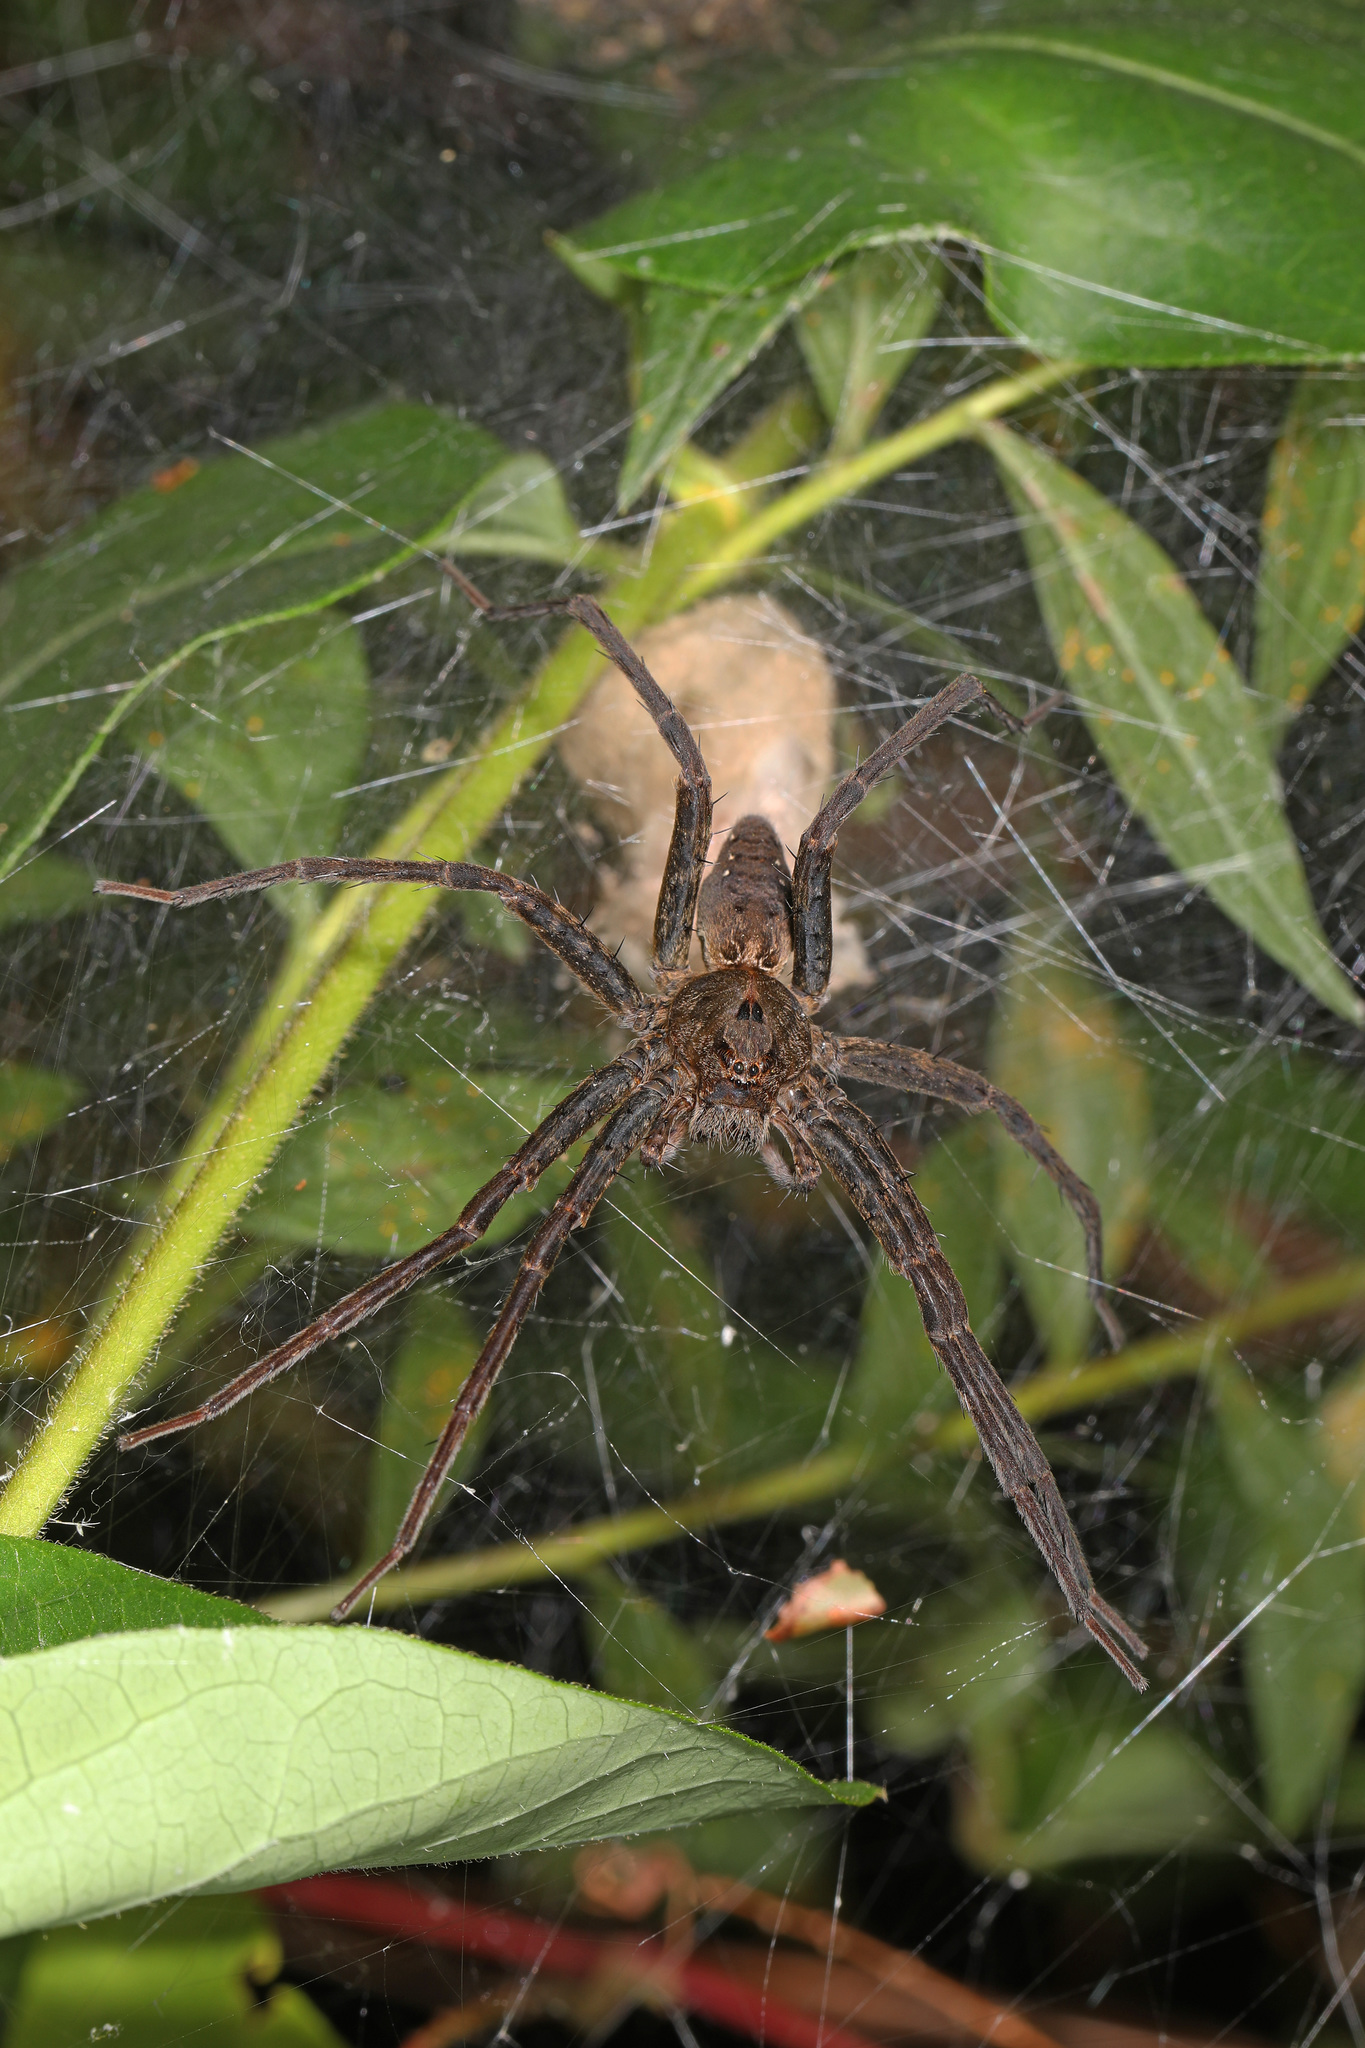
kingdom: Animalia
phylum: Arthropoda
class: Arachnida
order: Araneae
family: Pisauridae
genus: Dolomedes
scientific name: Dolomedes vittatus
